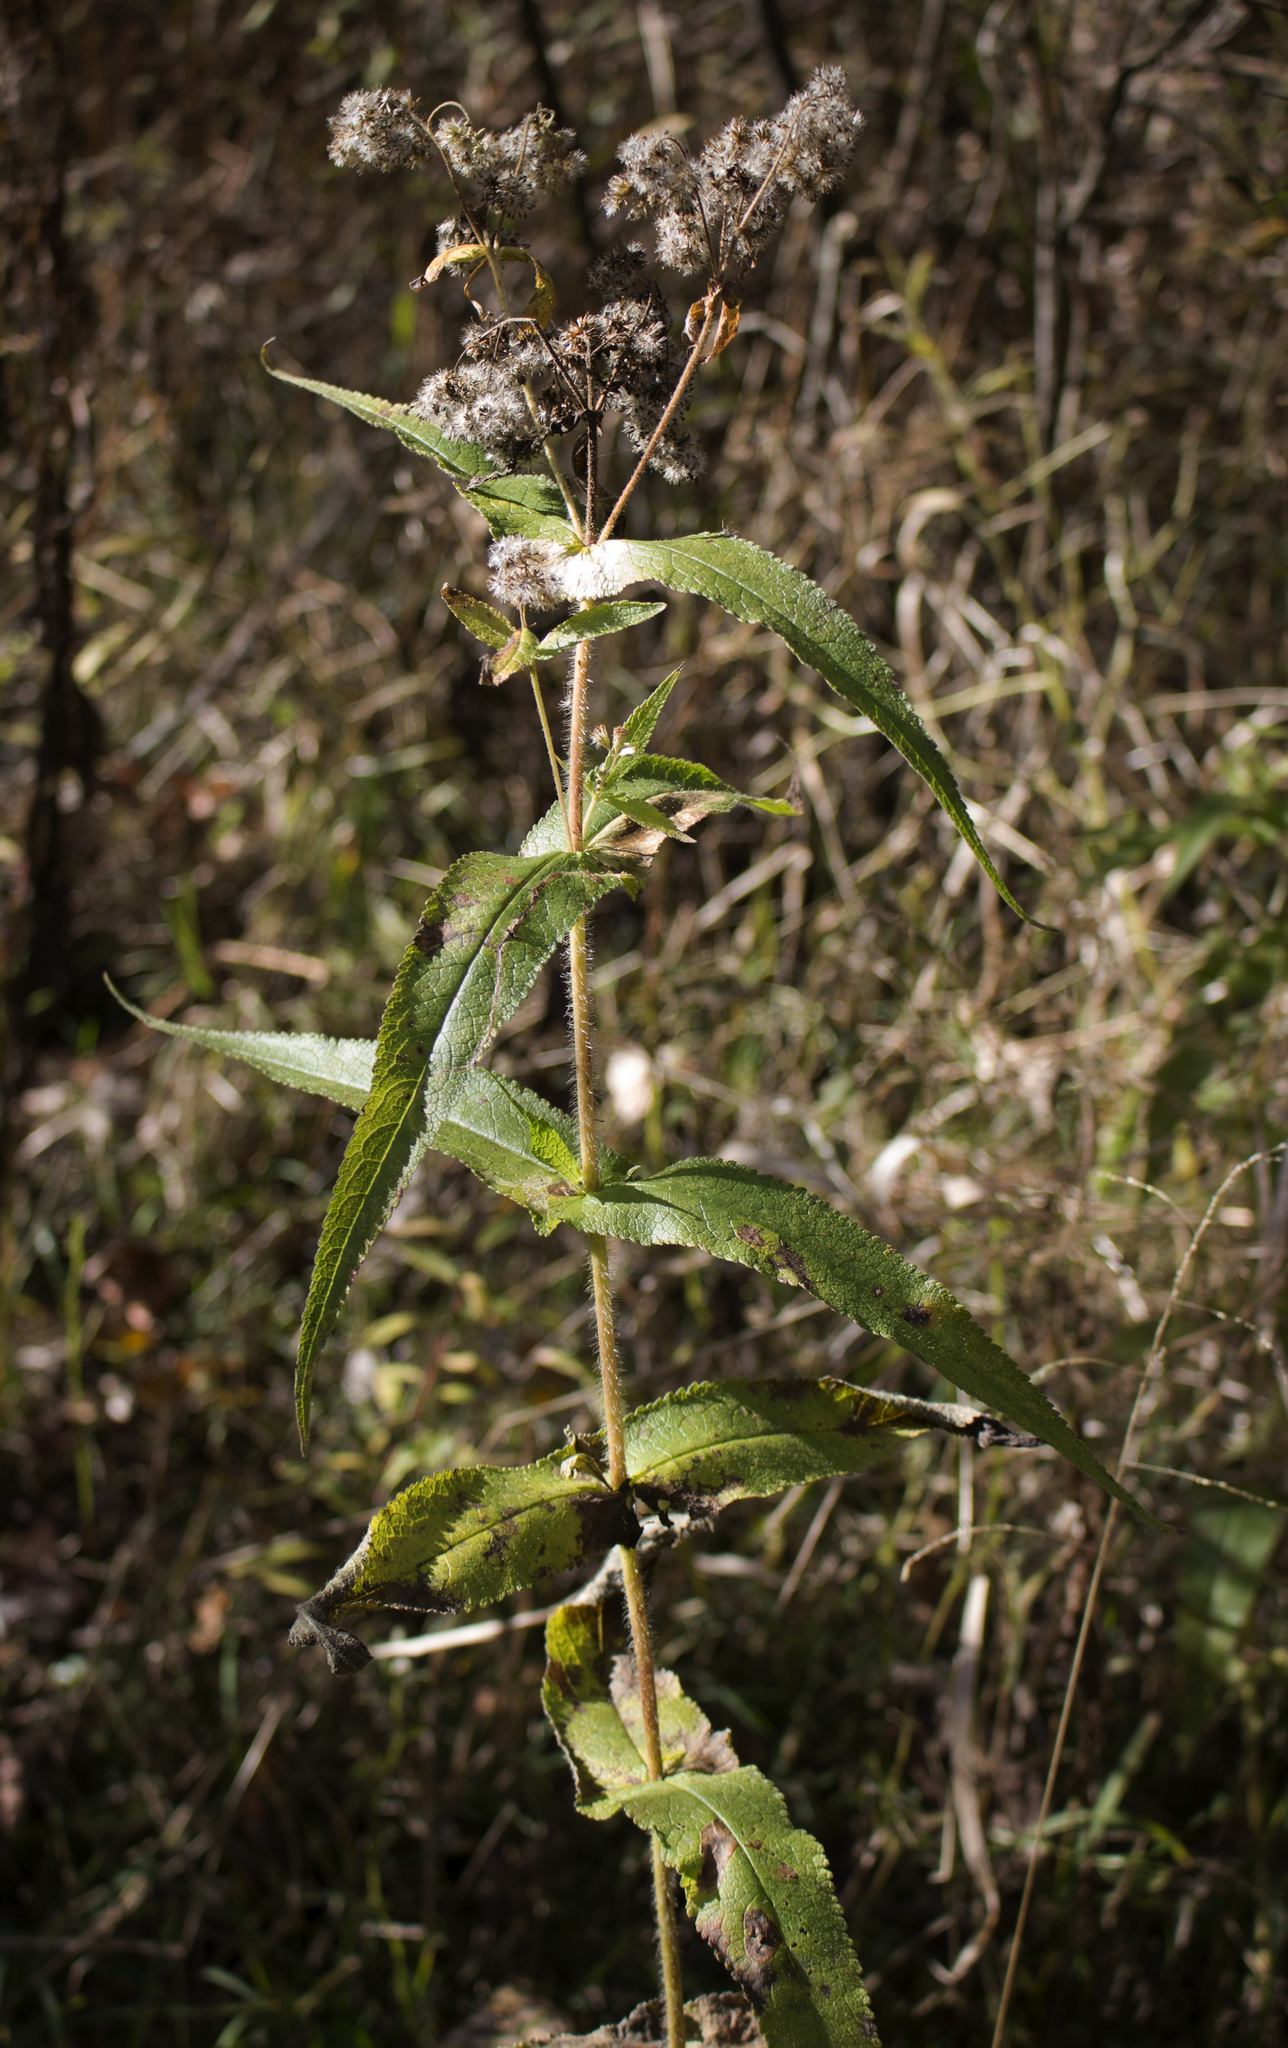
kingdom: Plantae
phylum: Tracheophyta
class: Magnoliopsida
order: Asterales
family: Asteraceae
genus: Eupatorium
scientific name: Eupatorium perfoliatum
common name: Boneset
